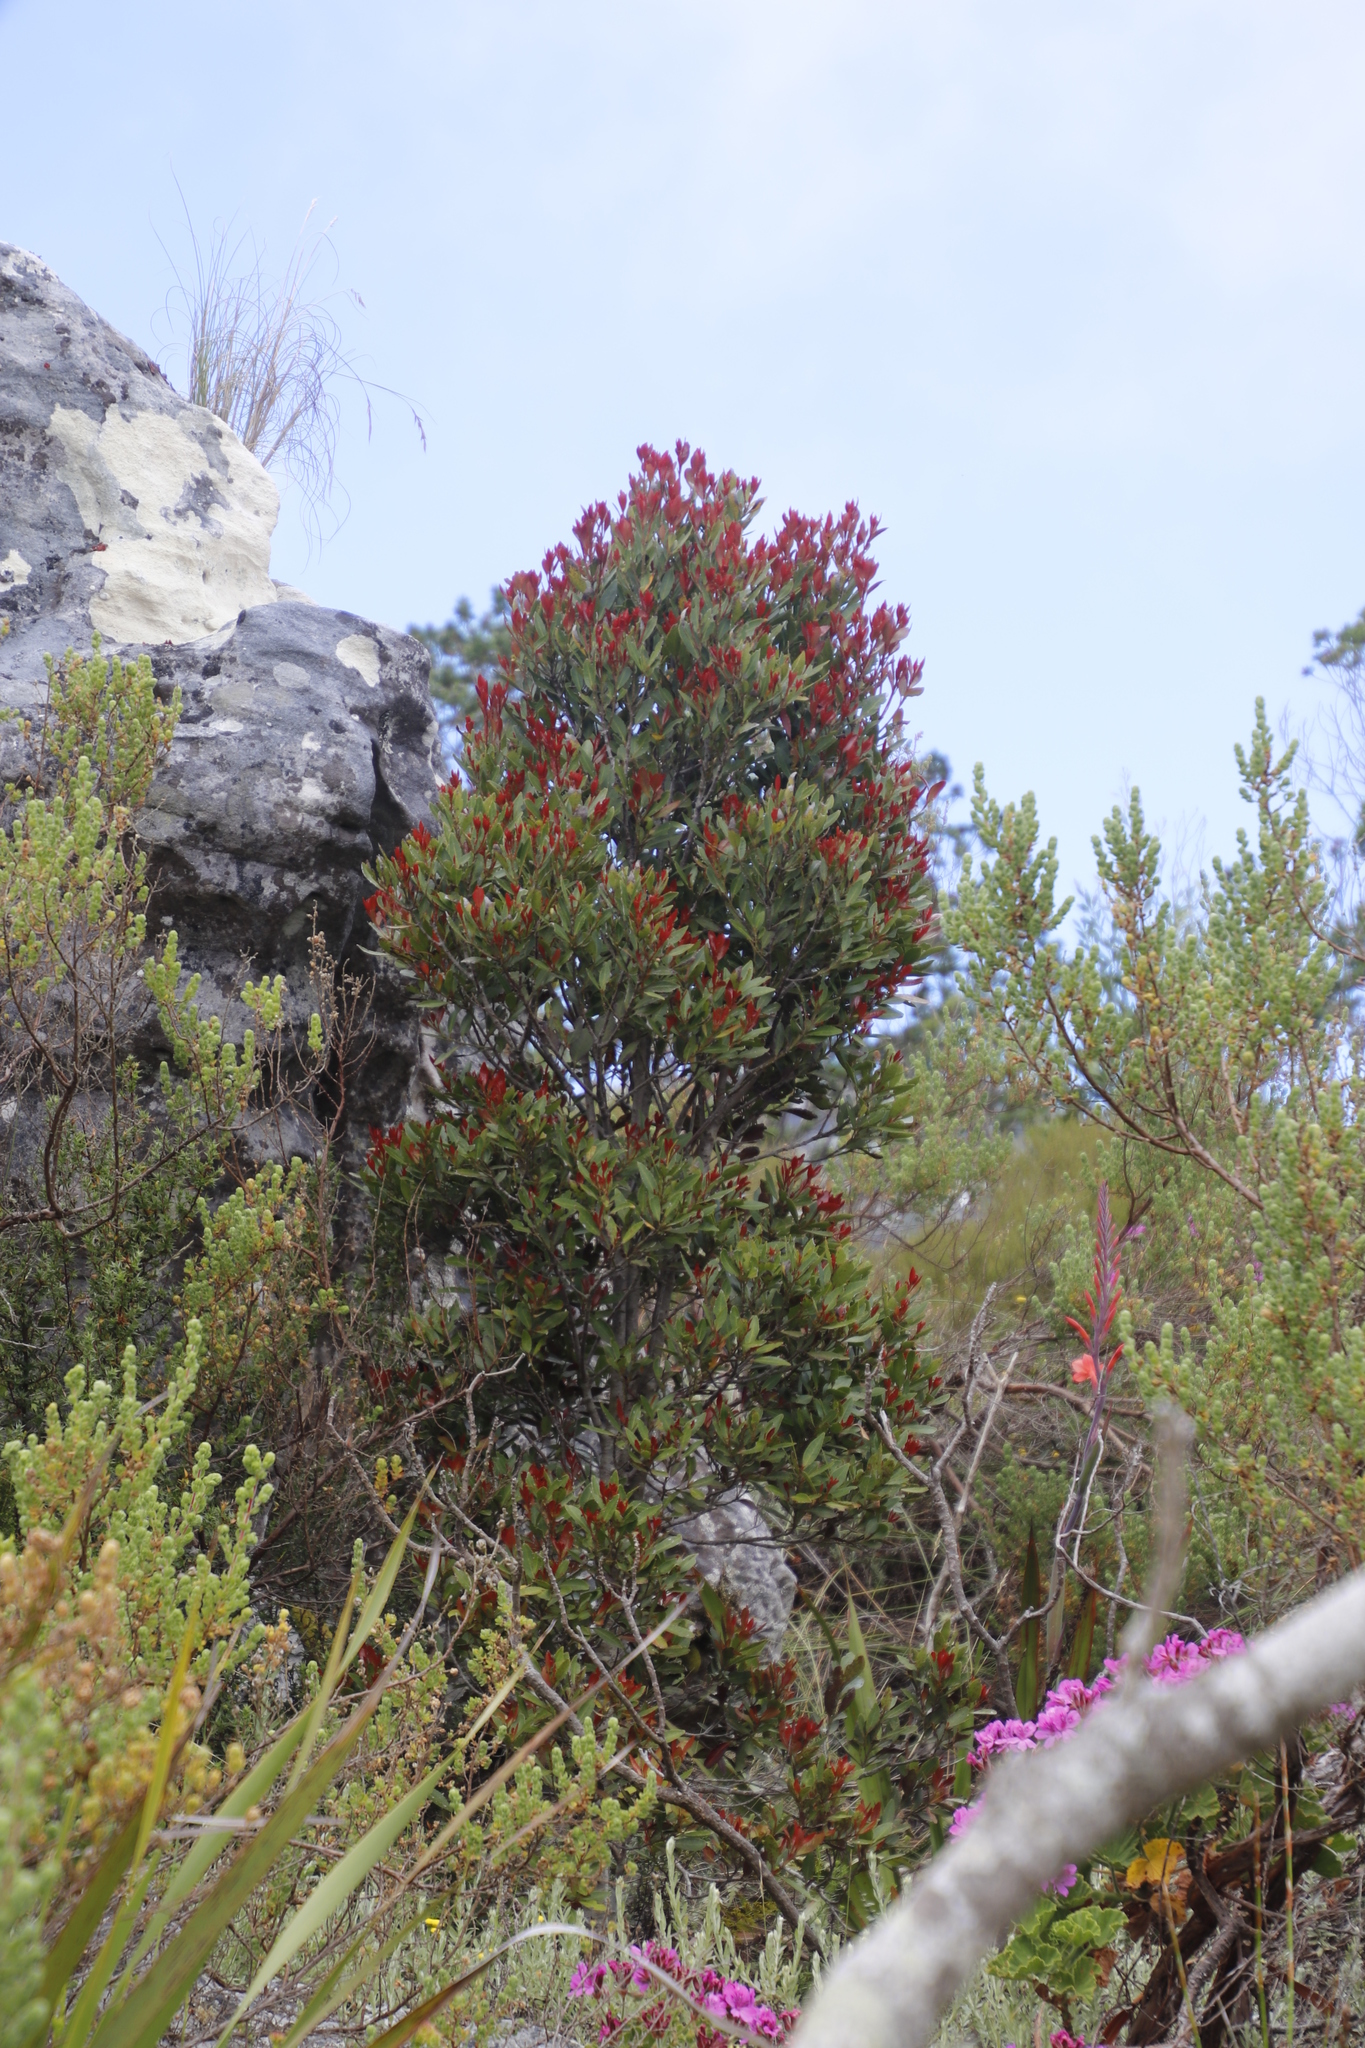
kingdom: Plantae
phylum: Tracheophyta
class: Magnoliopsida
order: Celastrales
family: Celastraceae
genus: Elaeodendron
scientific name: Elaeodendron schinoides
